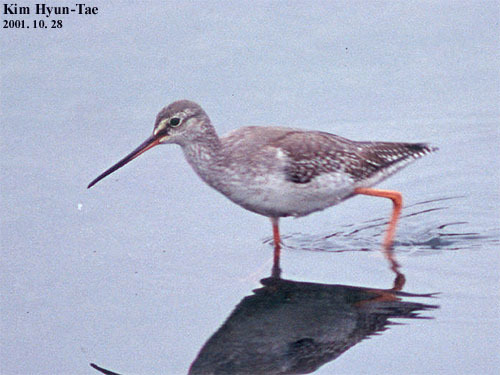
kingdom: Animalia
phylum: Chordata
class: Aves
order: Charadriiformes
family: Scolopacidae
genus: Tringa
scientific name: Tringa erythropus
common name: Spotted redshank
